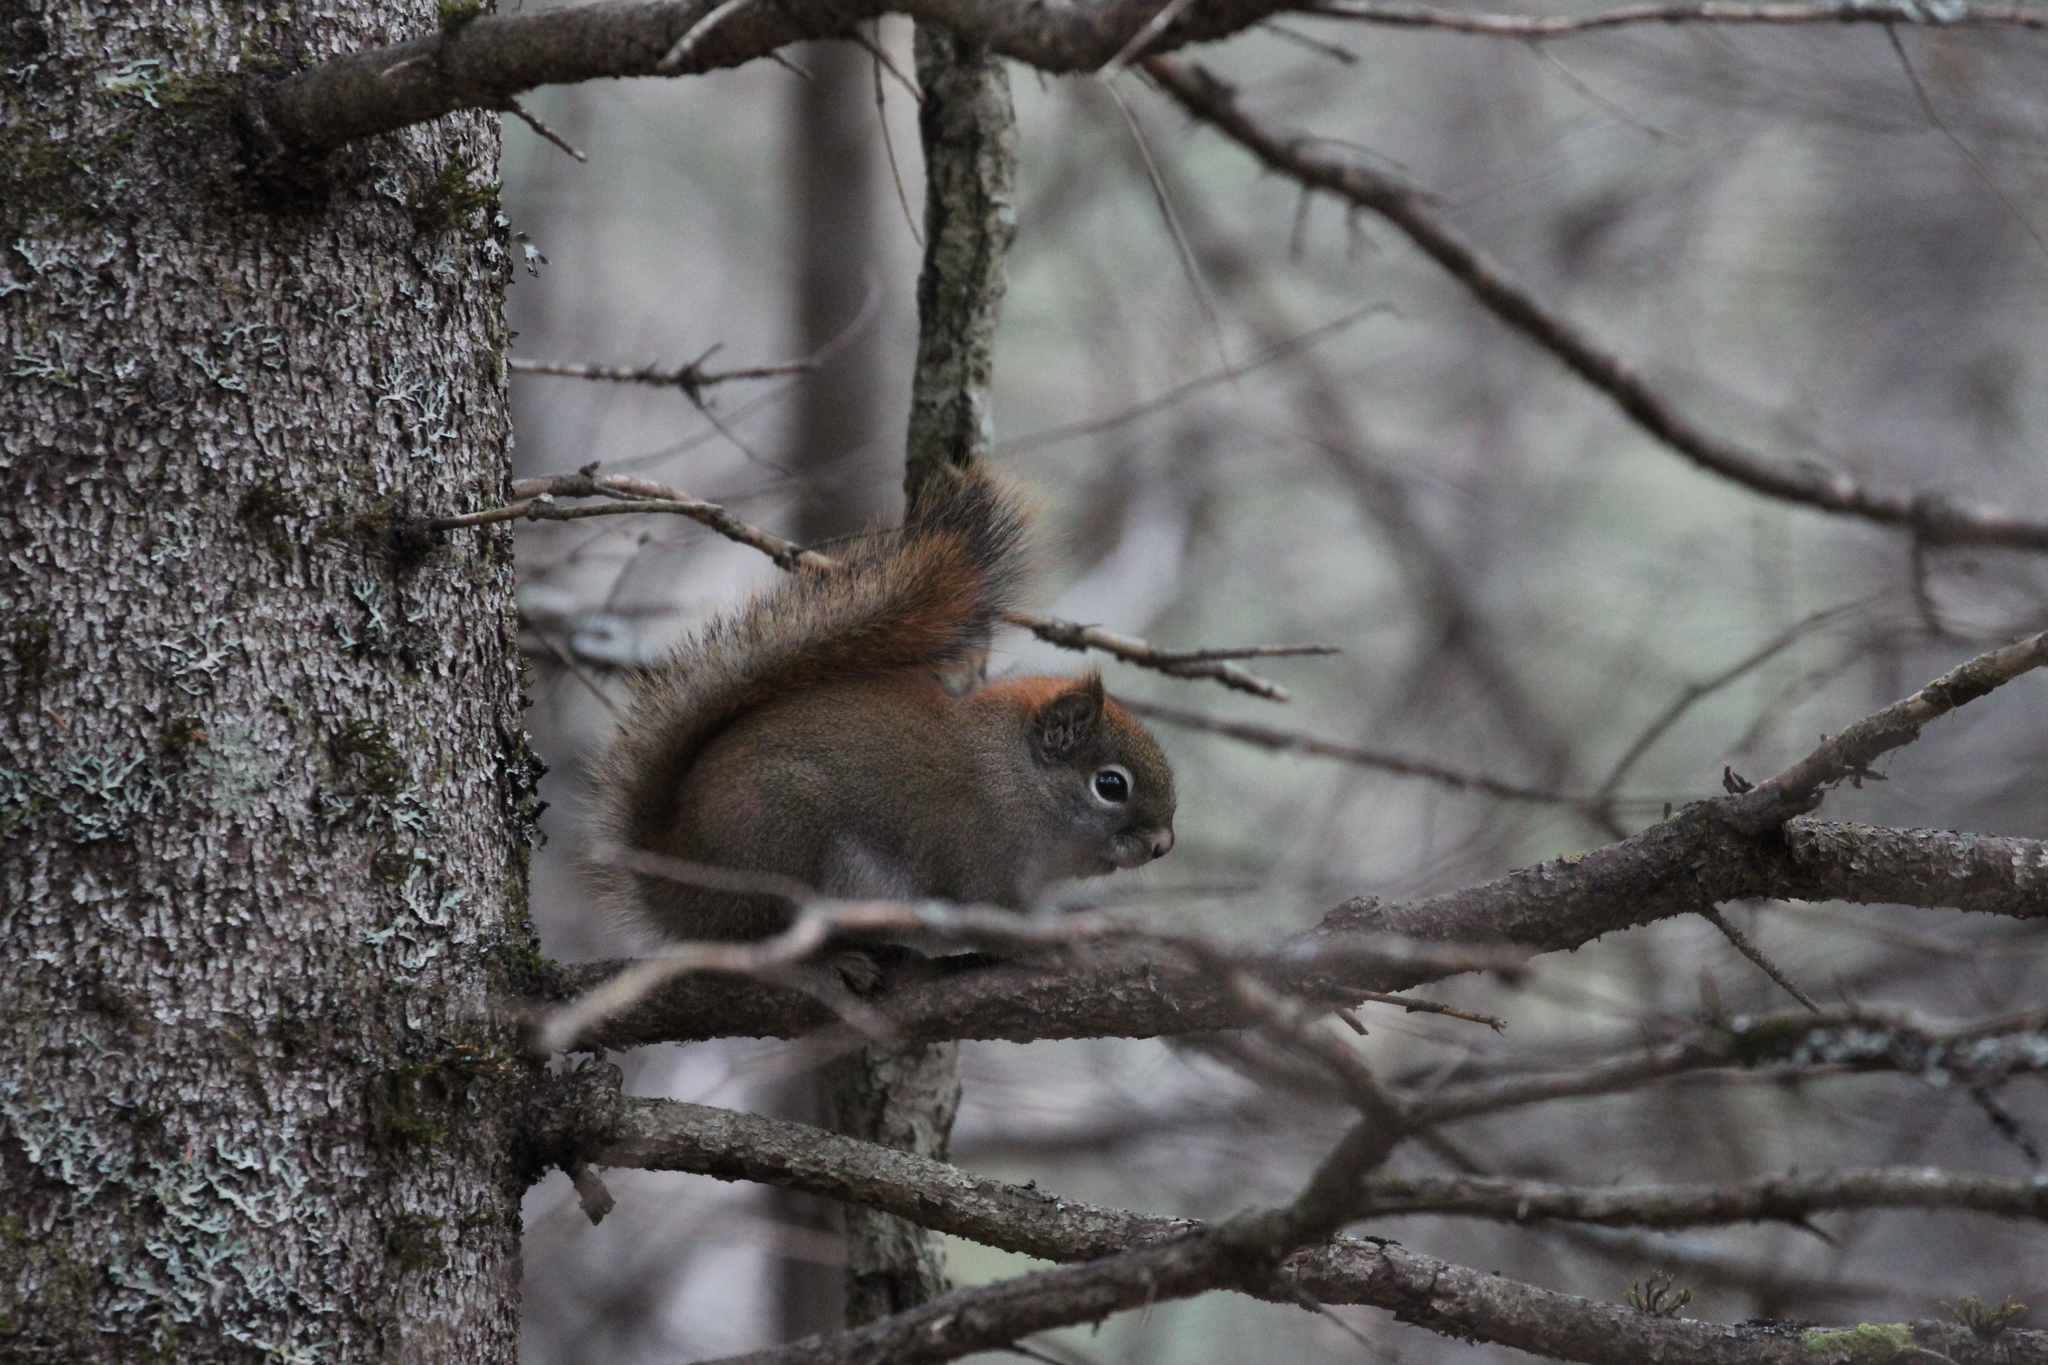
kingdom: Animalia
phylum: Chordata
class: Mammalia
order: Rodentia
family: Sciuridae
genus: Tamiasciurus
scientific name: Tamiasciurus hudsonicus
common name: Red squirrel
